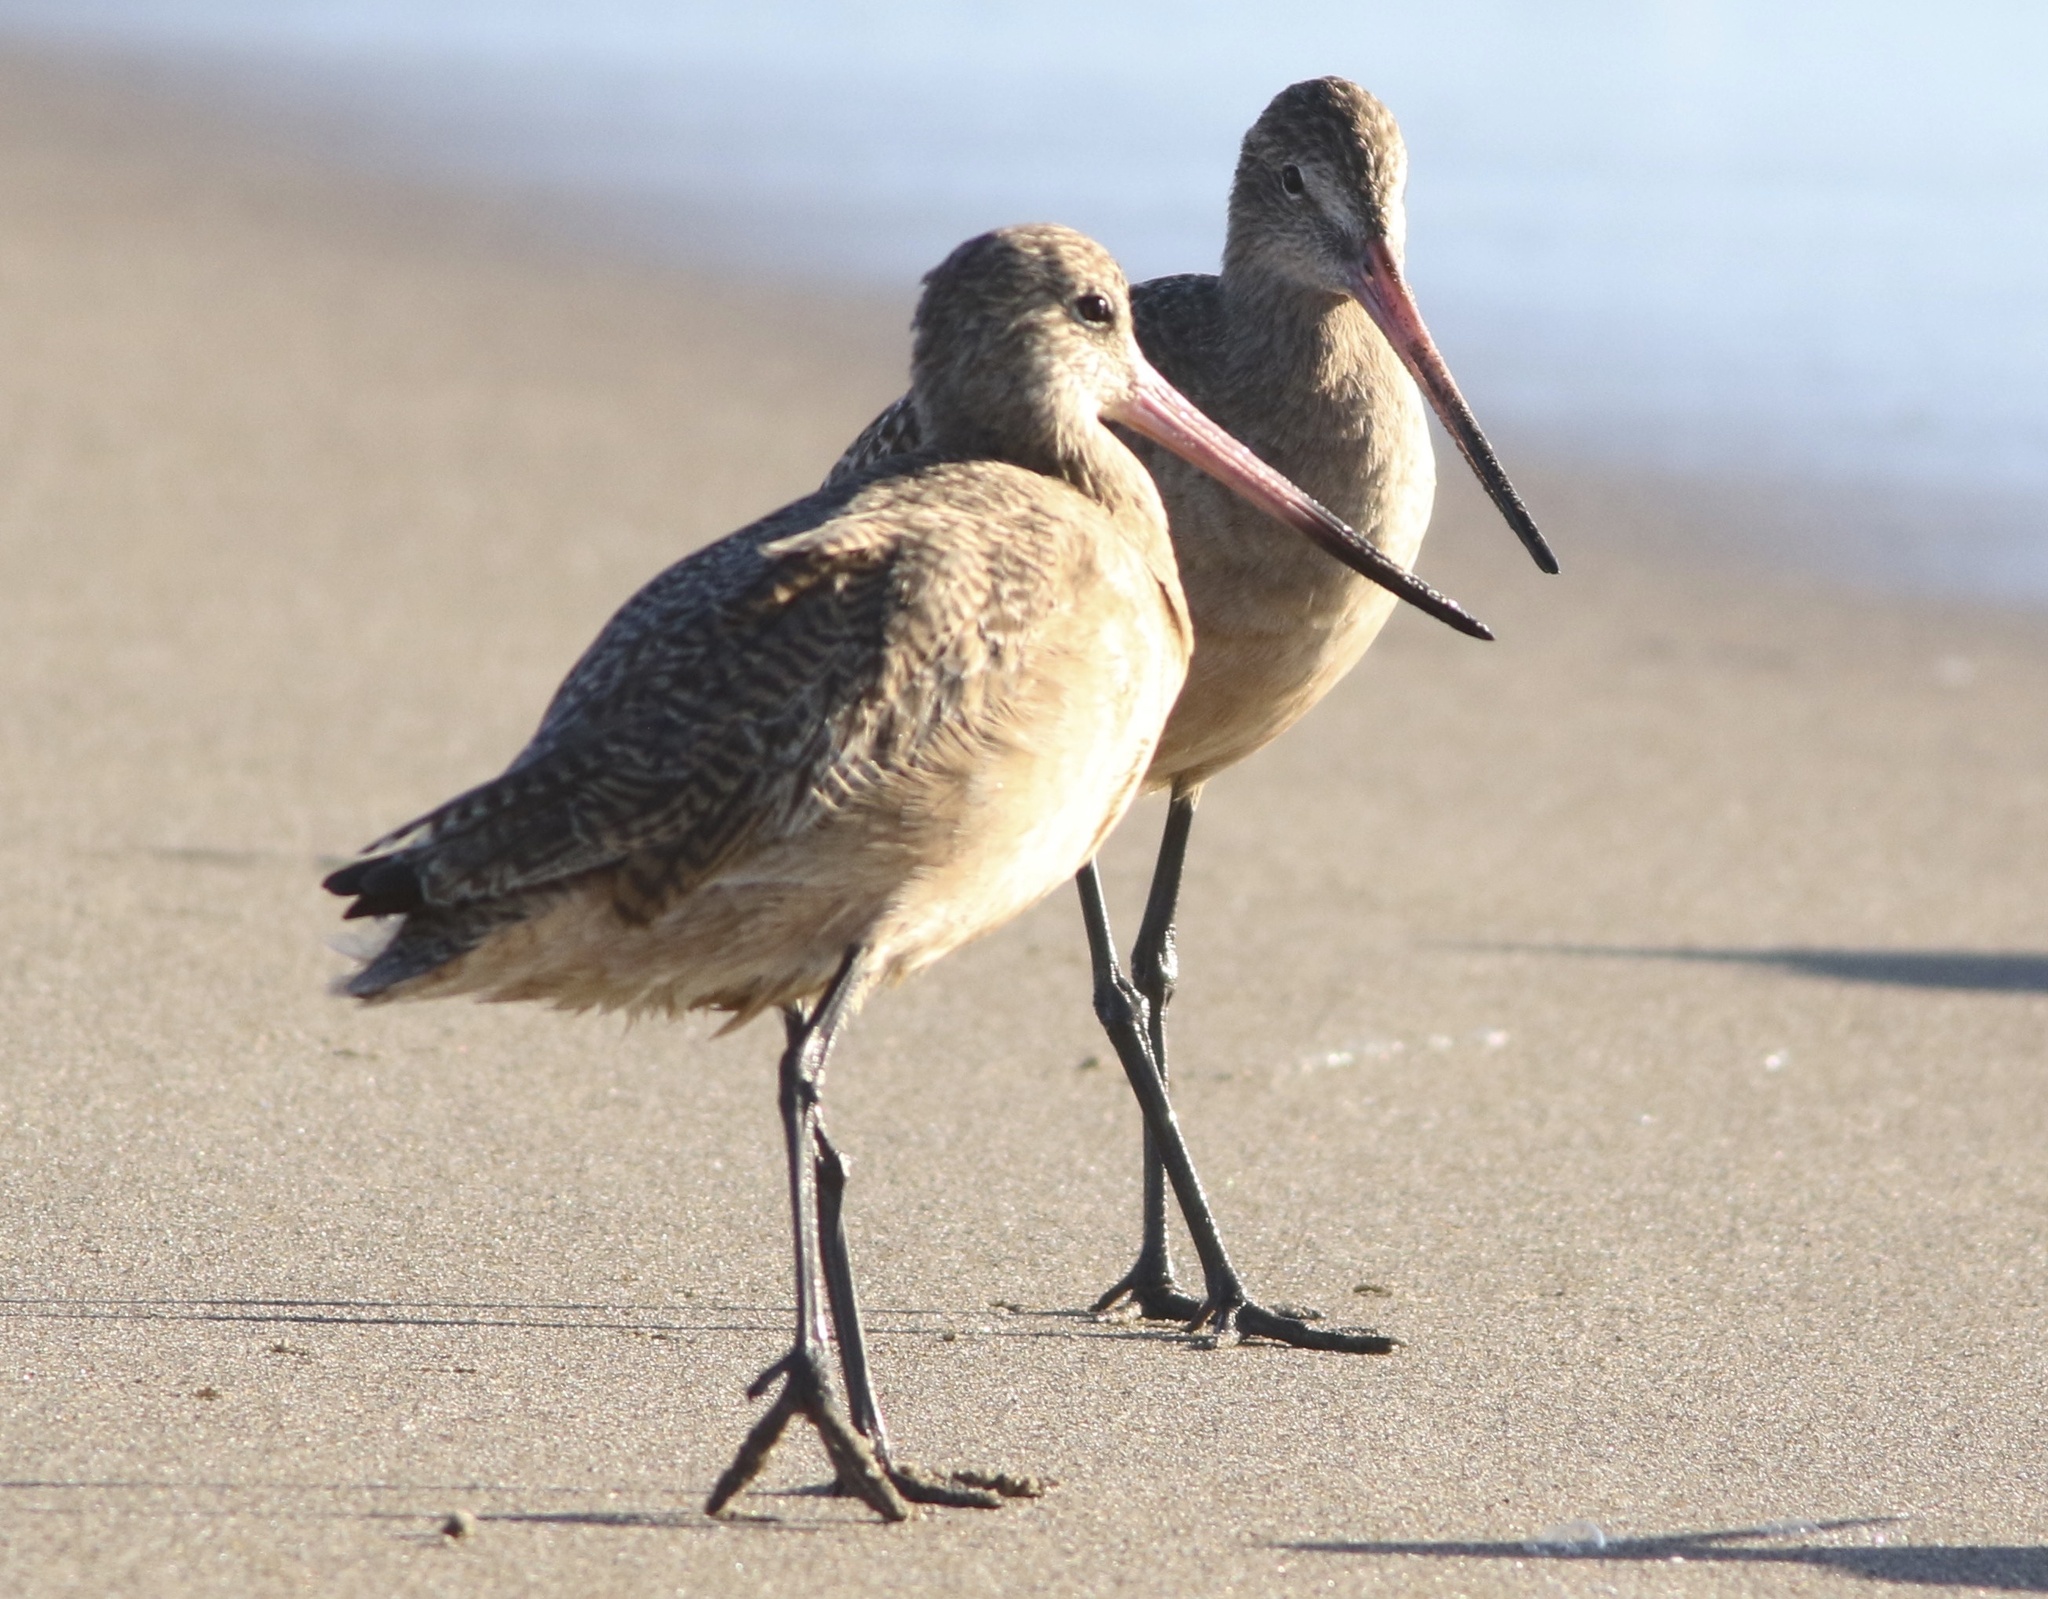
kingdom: Animalia
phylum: Chordata
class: Aves
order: Charadriiformes
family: Scolopacidae
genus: Limosa
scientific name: Limosa fedoa
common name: Marbled godwit
